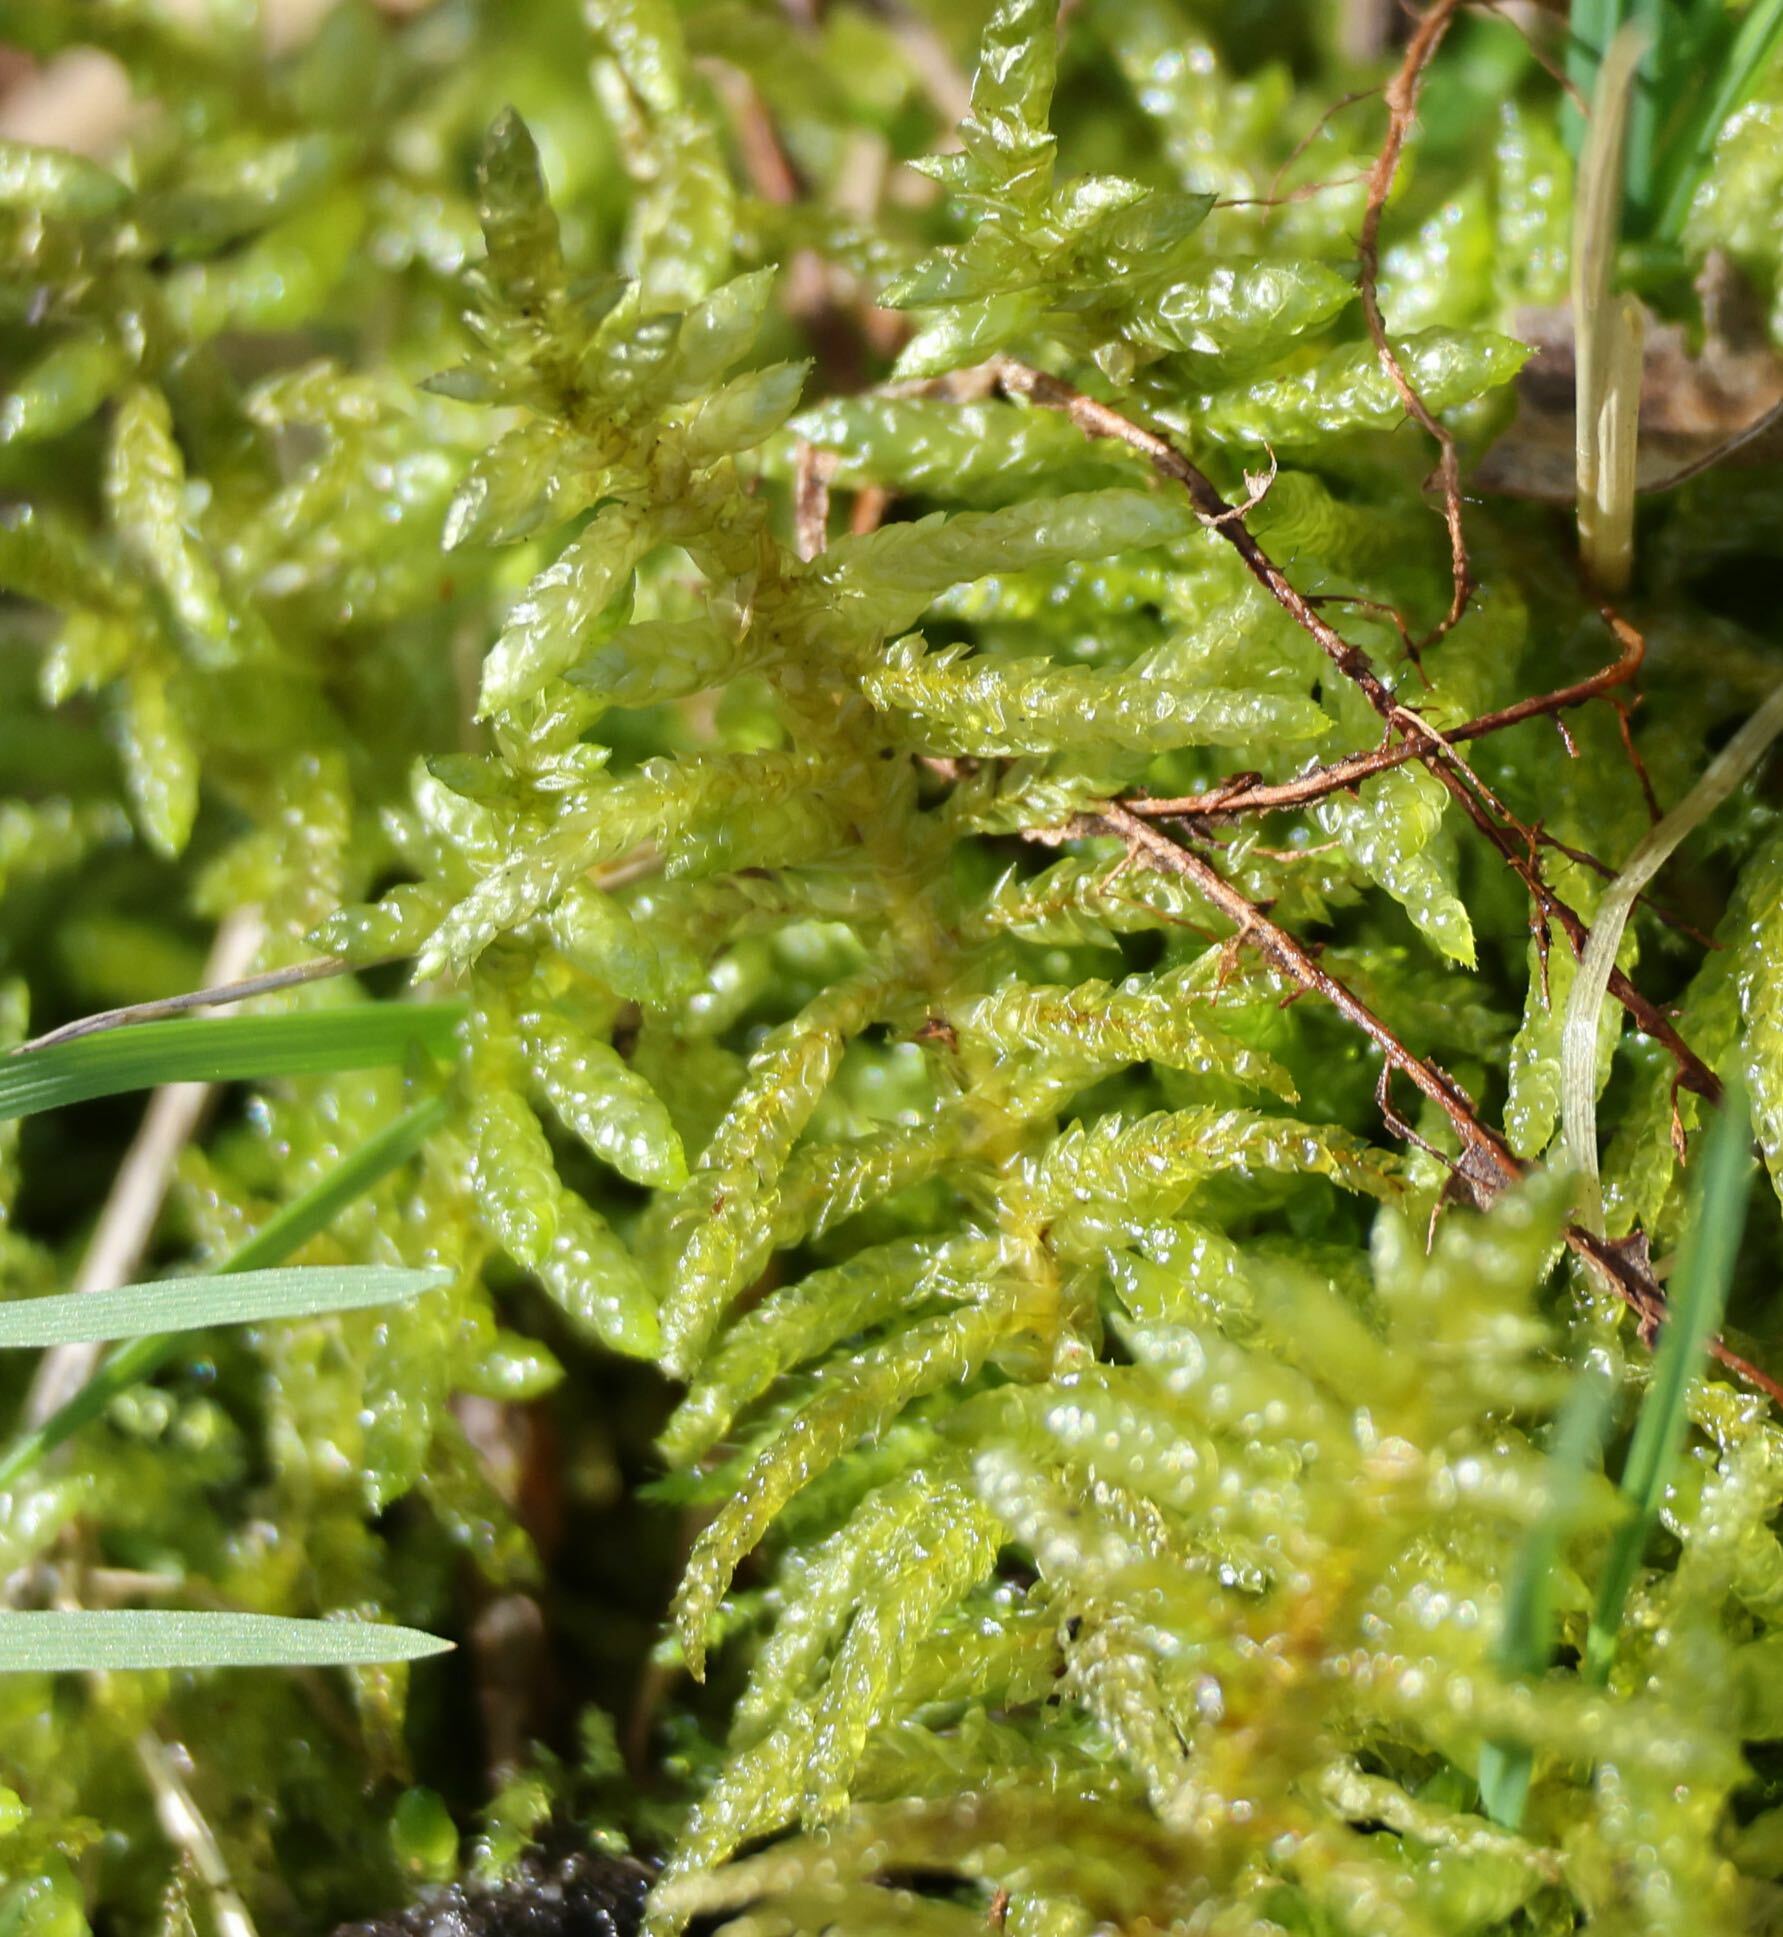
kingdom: Plantae
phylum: Bryophyta
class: Bryopsida
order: Hypnales
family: Brachytheciaceae
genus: Pseudoscleropodium
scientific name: Pseudoscleropodium purum
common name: Neat feather-moss
